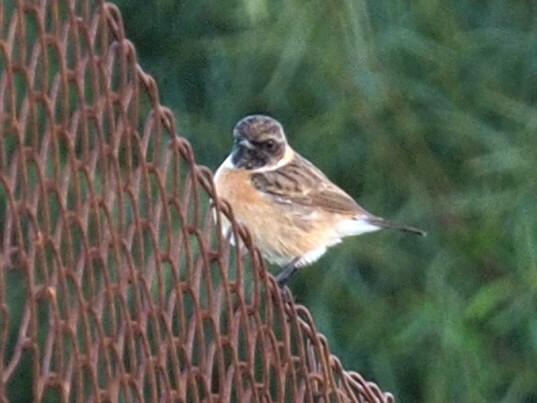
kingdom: Animalia
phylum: Chordata
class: Aves
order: Passeriformes
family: Muscicapidae
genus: Saxicola
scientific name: Saxicola rubicola
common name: European stonechat
